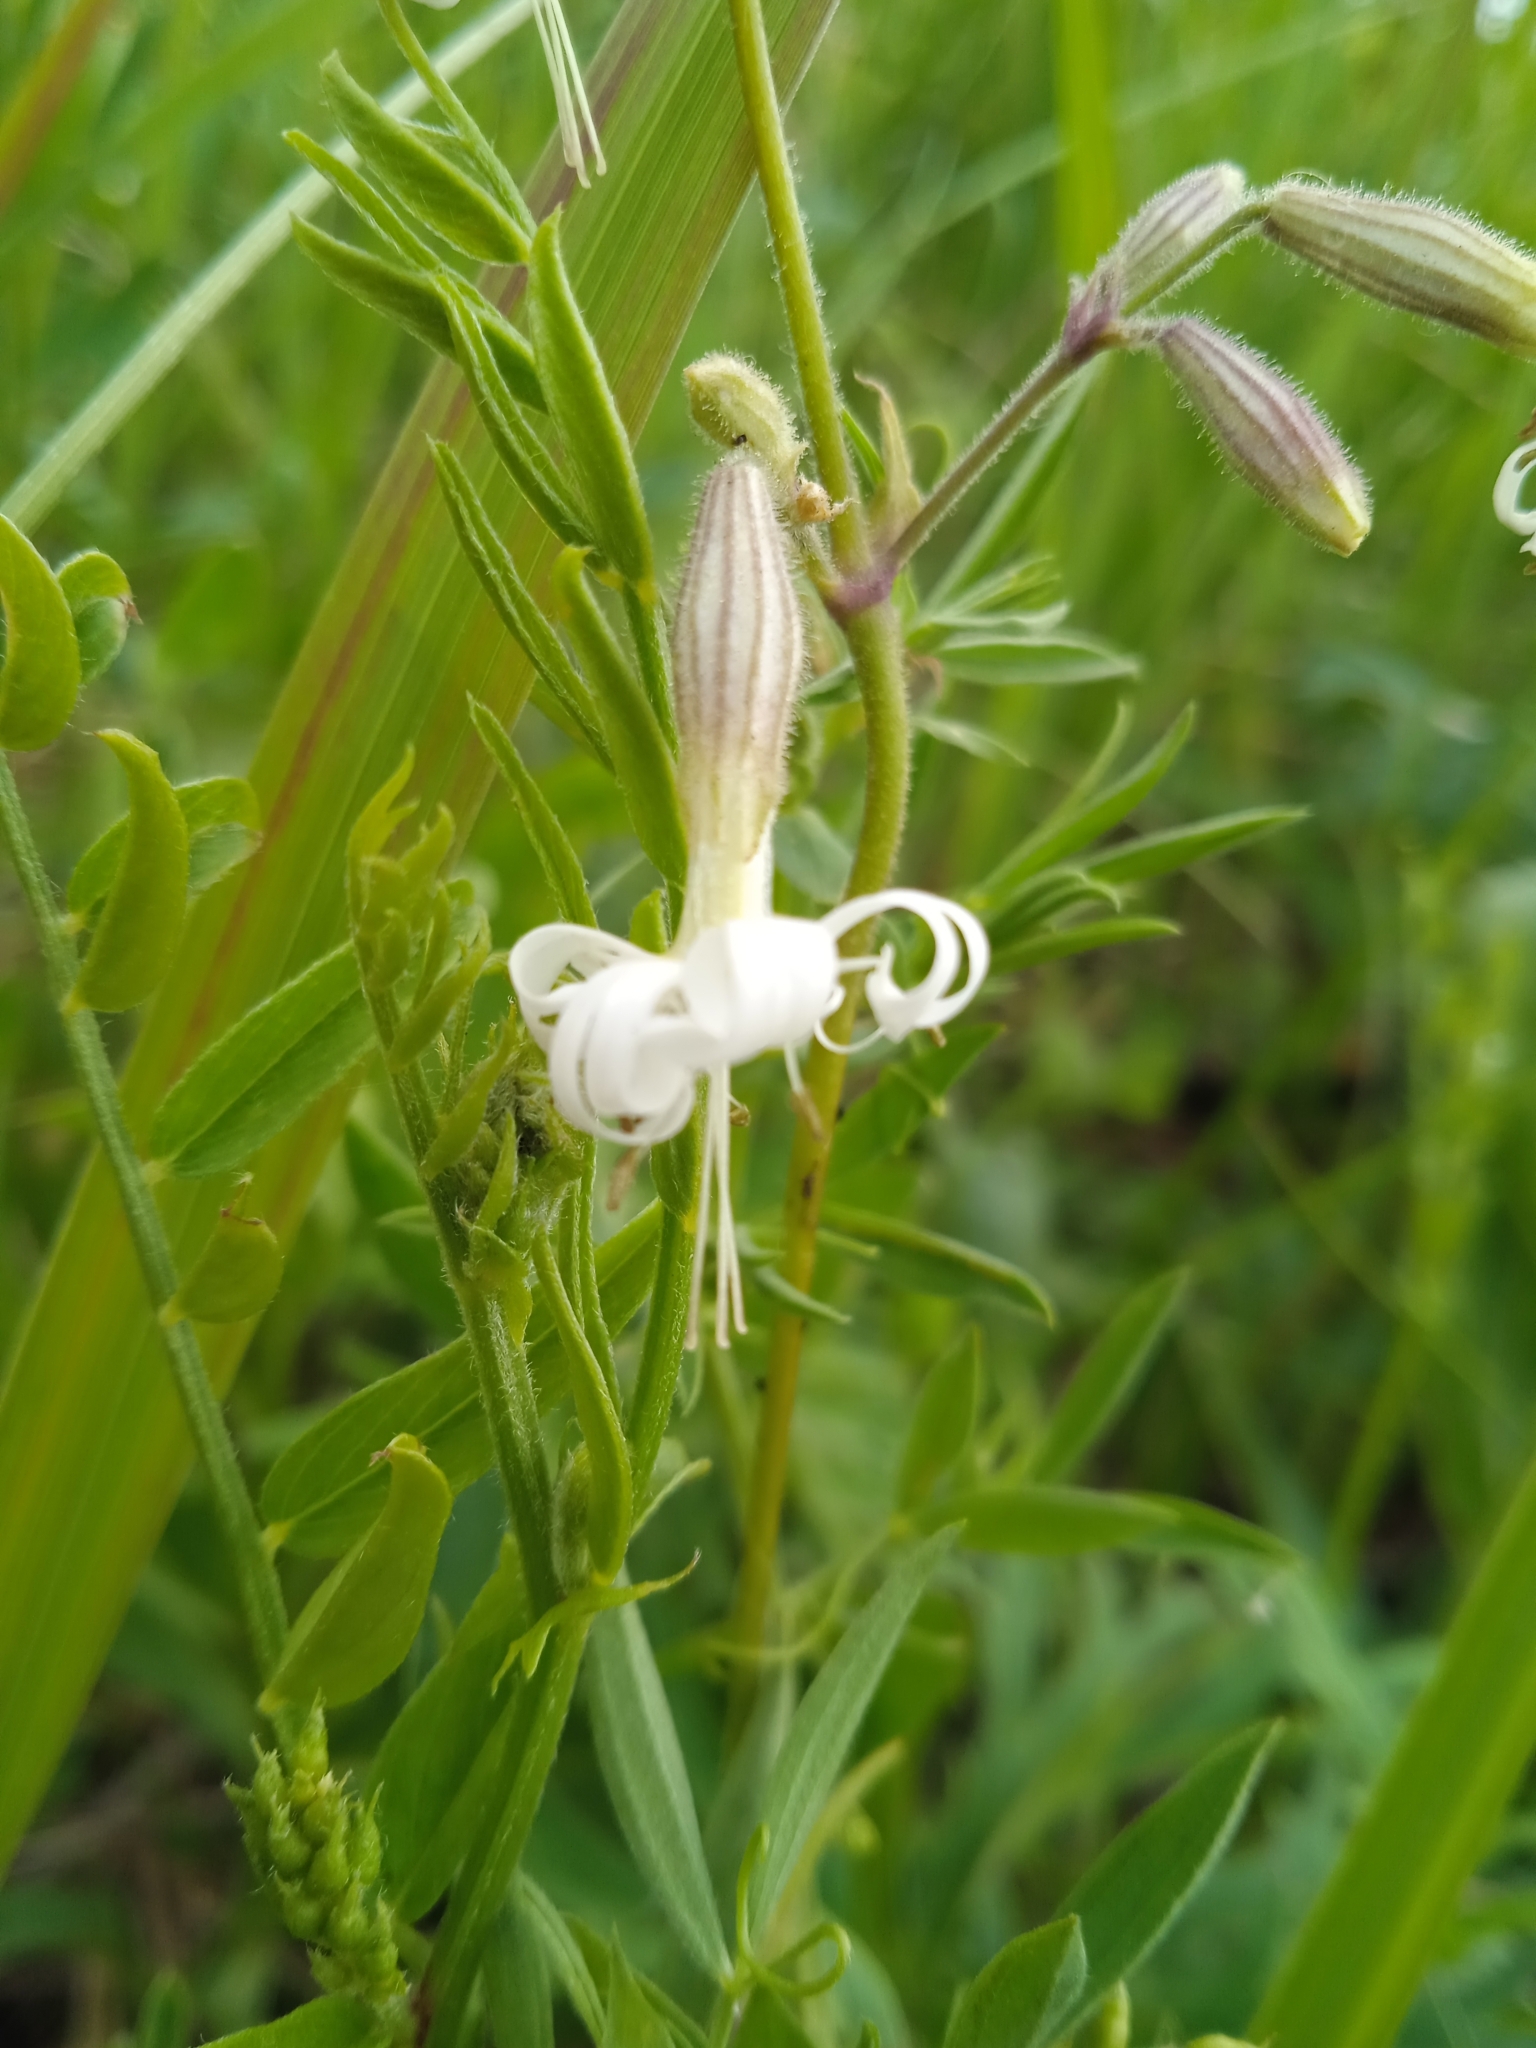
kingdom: Plantae
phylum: Tracheophyta
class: Magnoliopsida
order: Caryophyllales
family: Caryophyllaceae
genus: Silene
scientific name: Silene nutans
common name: Nottingham catchfly
